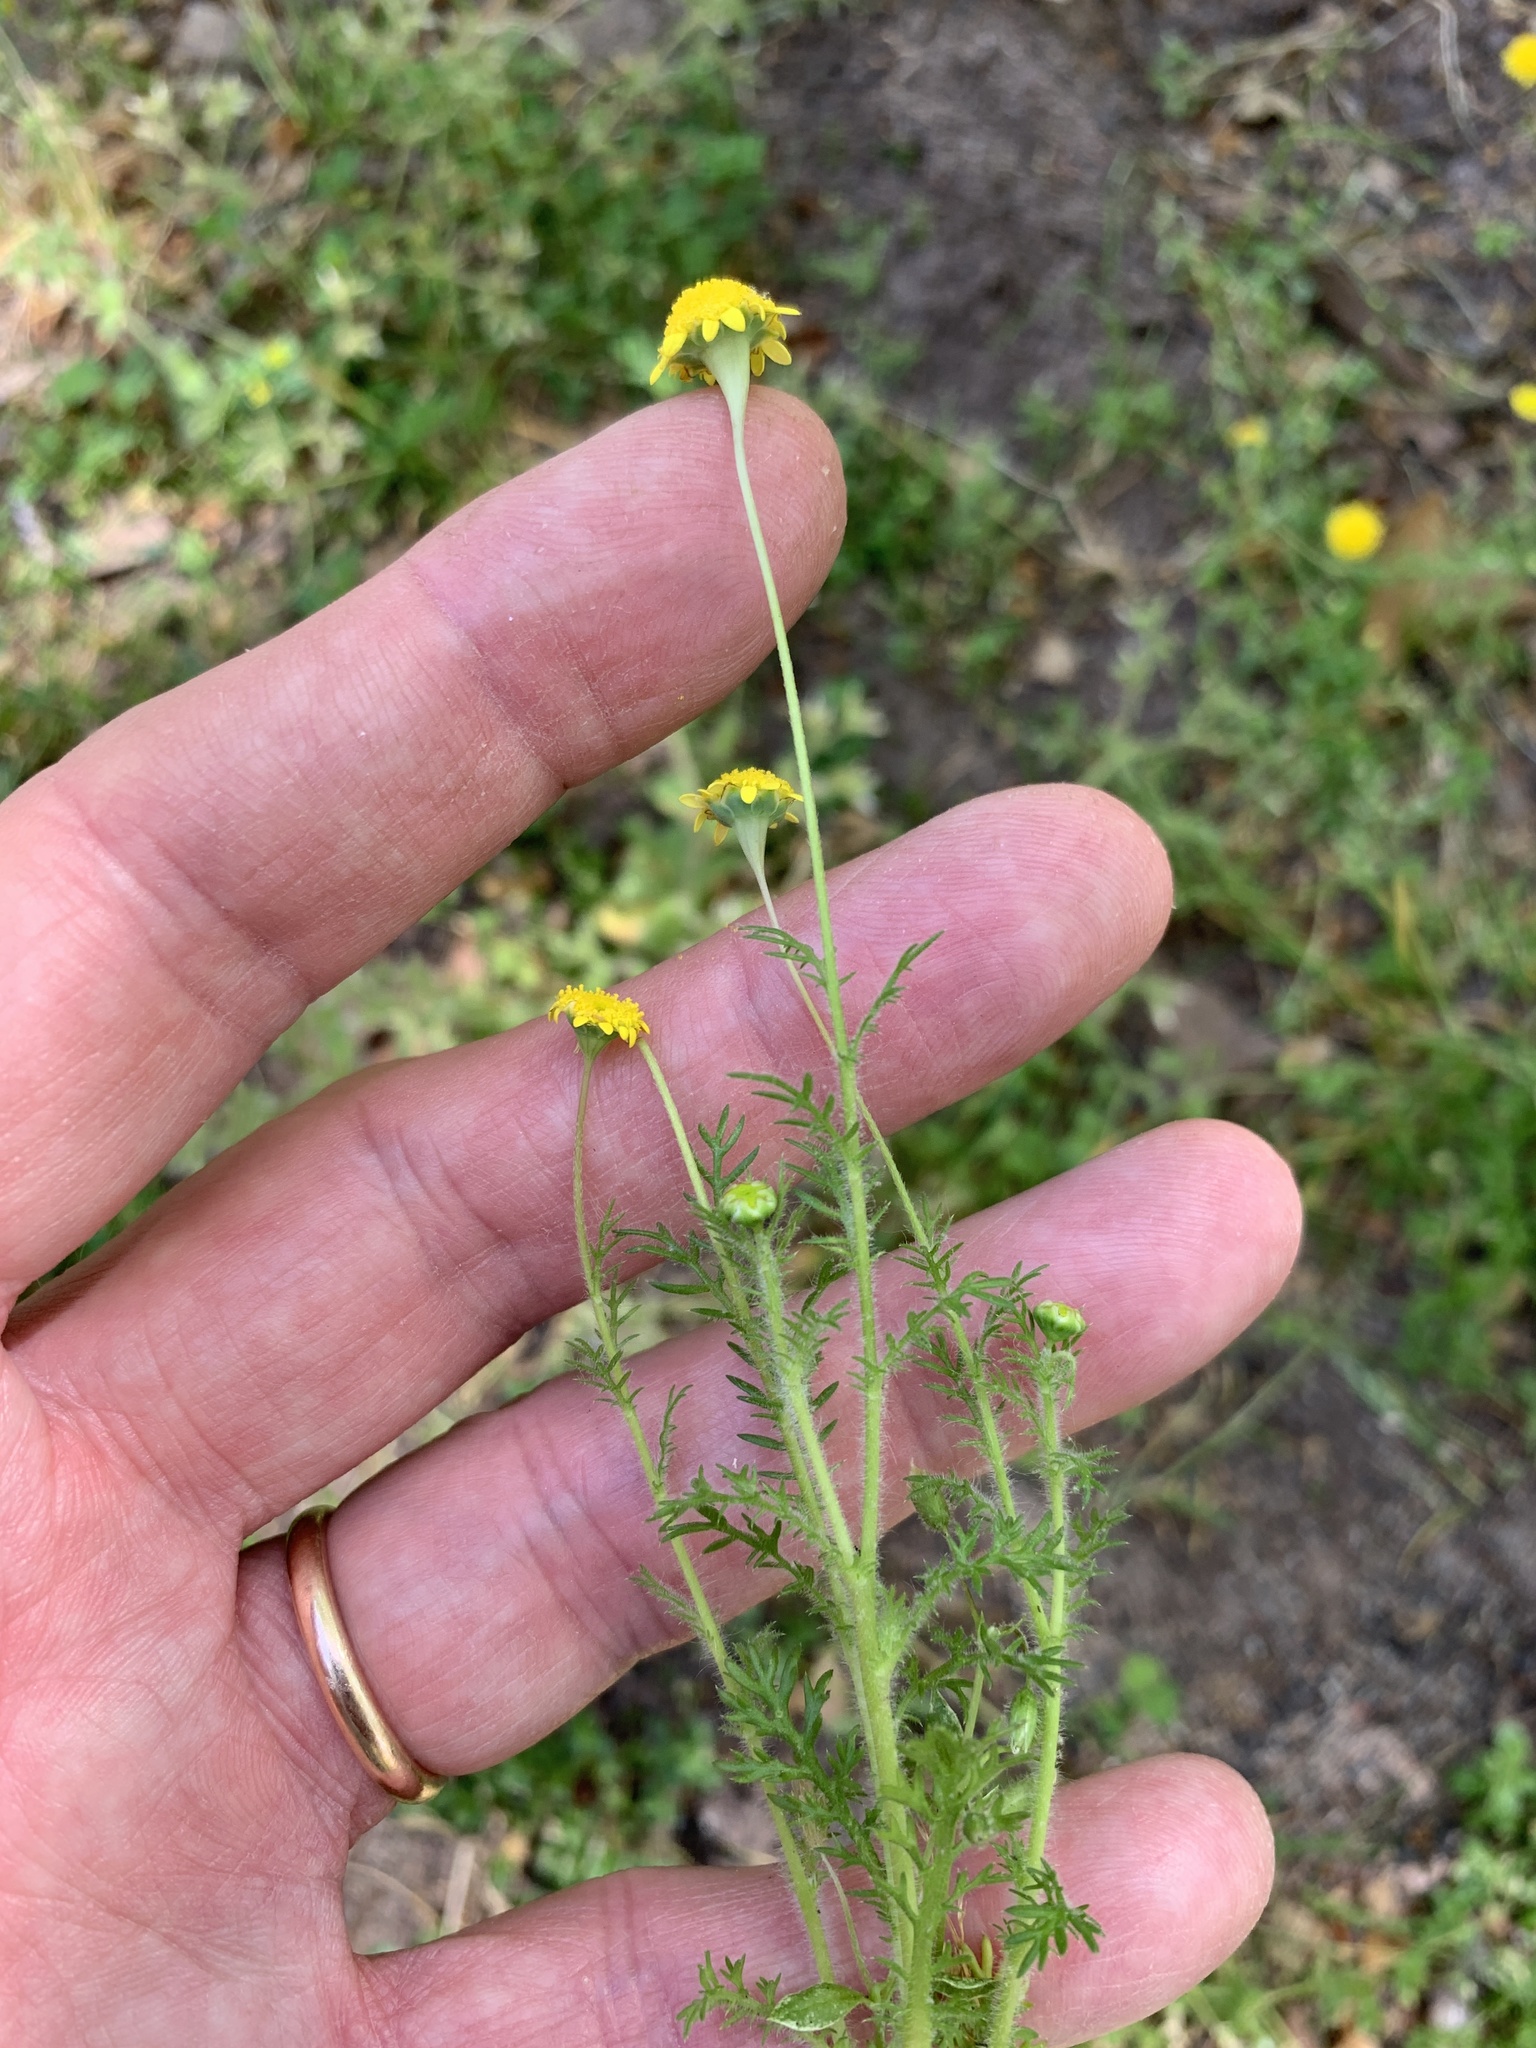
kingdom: Plantae
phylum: Tracheophyta
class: Magnoliopsida
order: Asterales
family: Asteraceae
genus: Cotula
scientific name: Cotula pruinosa
